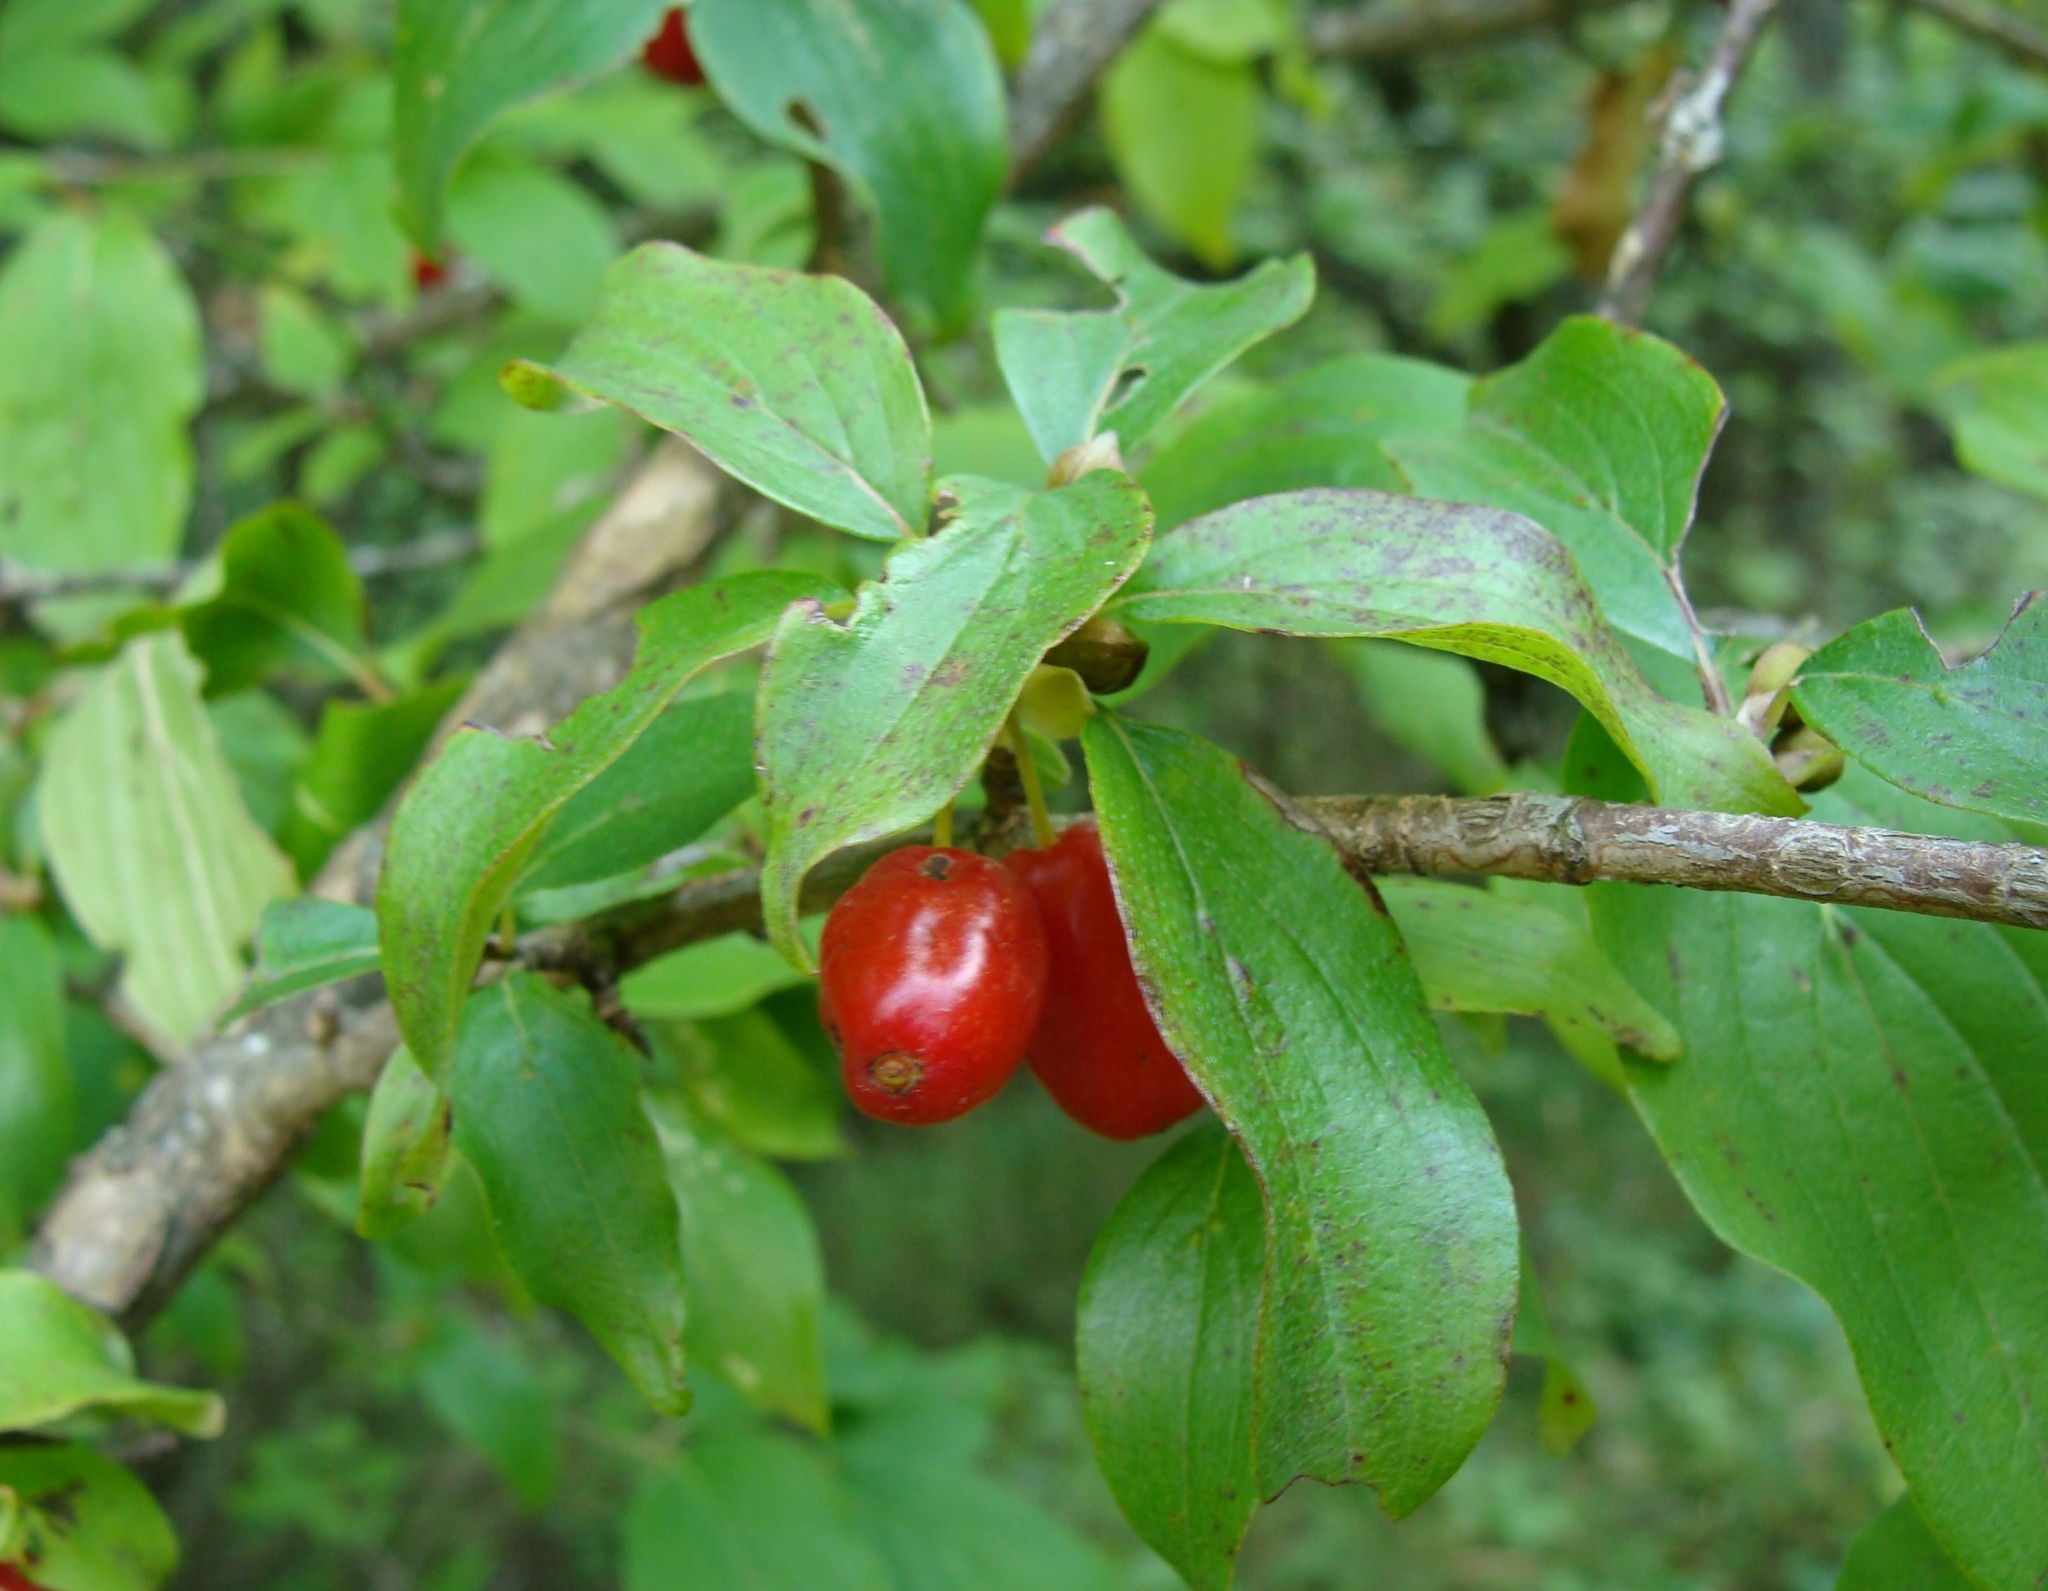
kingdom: Plantae
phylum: Tracheophyta
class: Magnoliopsida
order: Cornales
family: Cornaceae
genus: Cornus
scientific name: Cornus mas
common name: Cornelian-cherry
